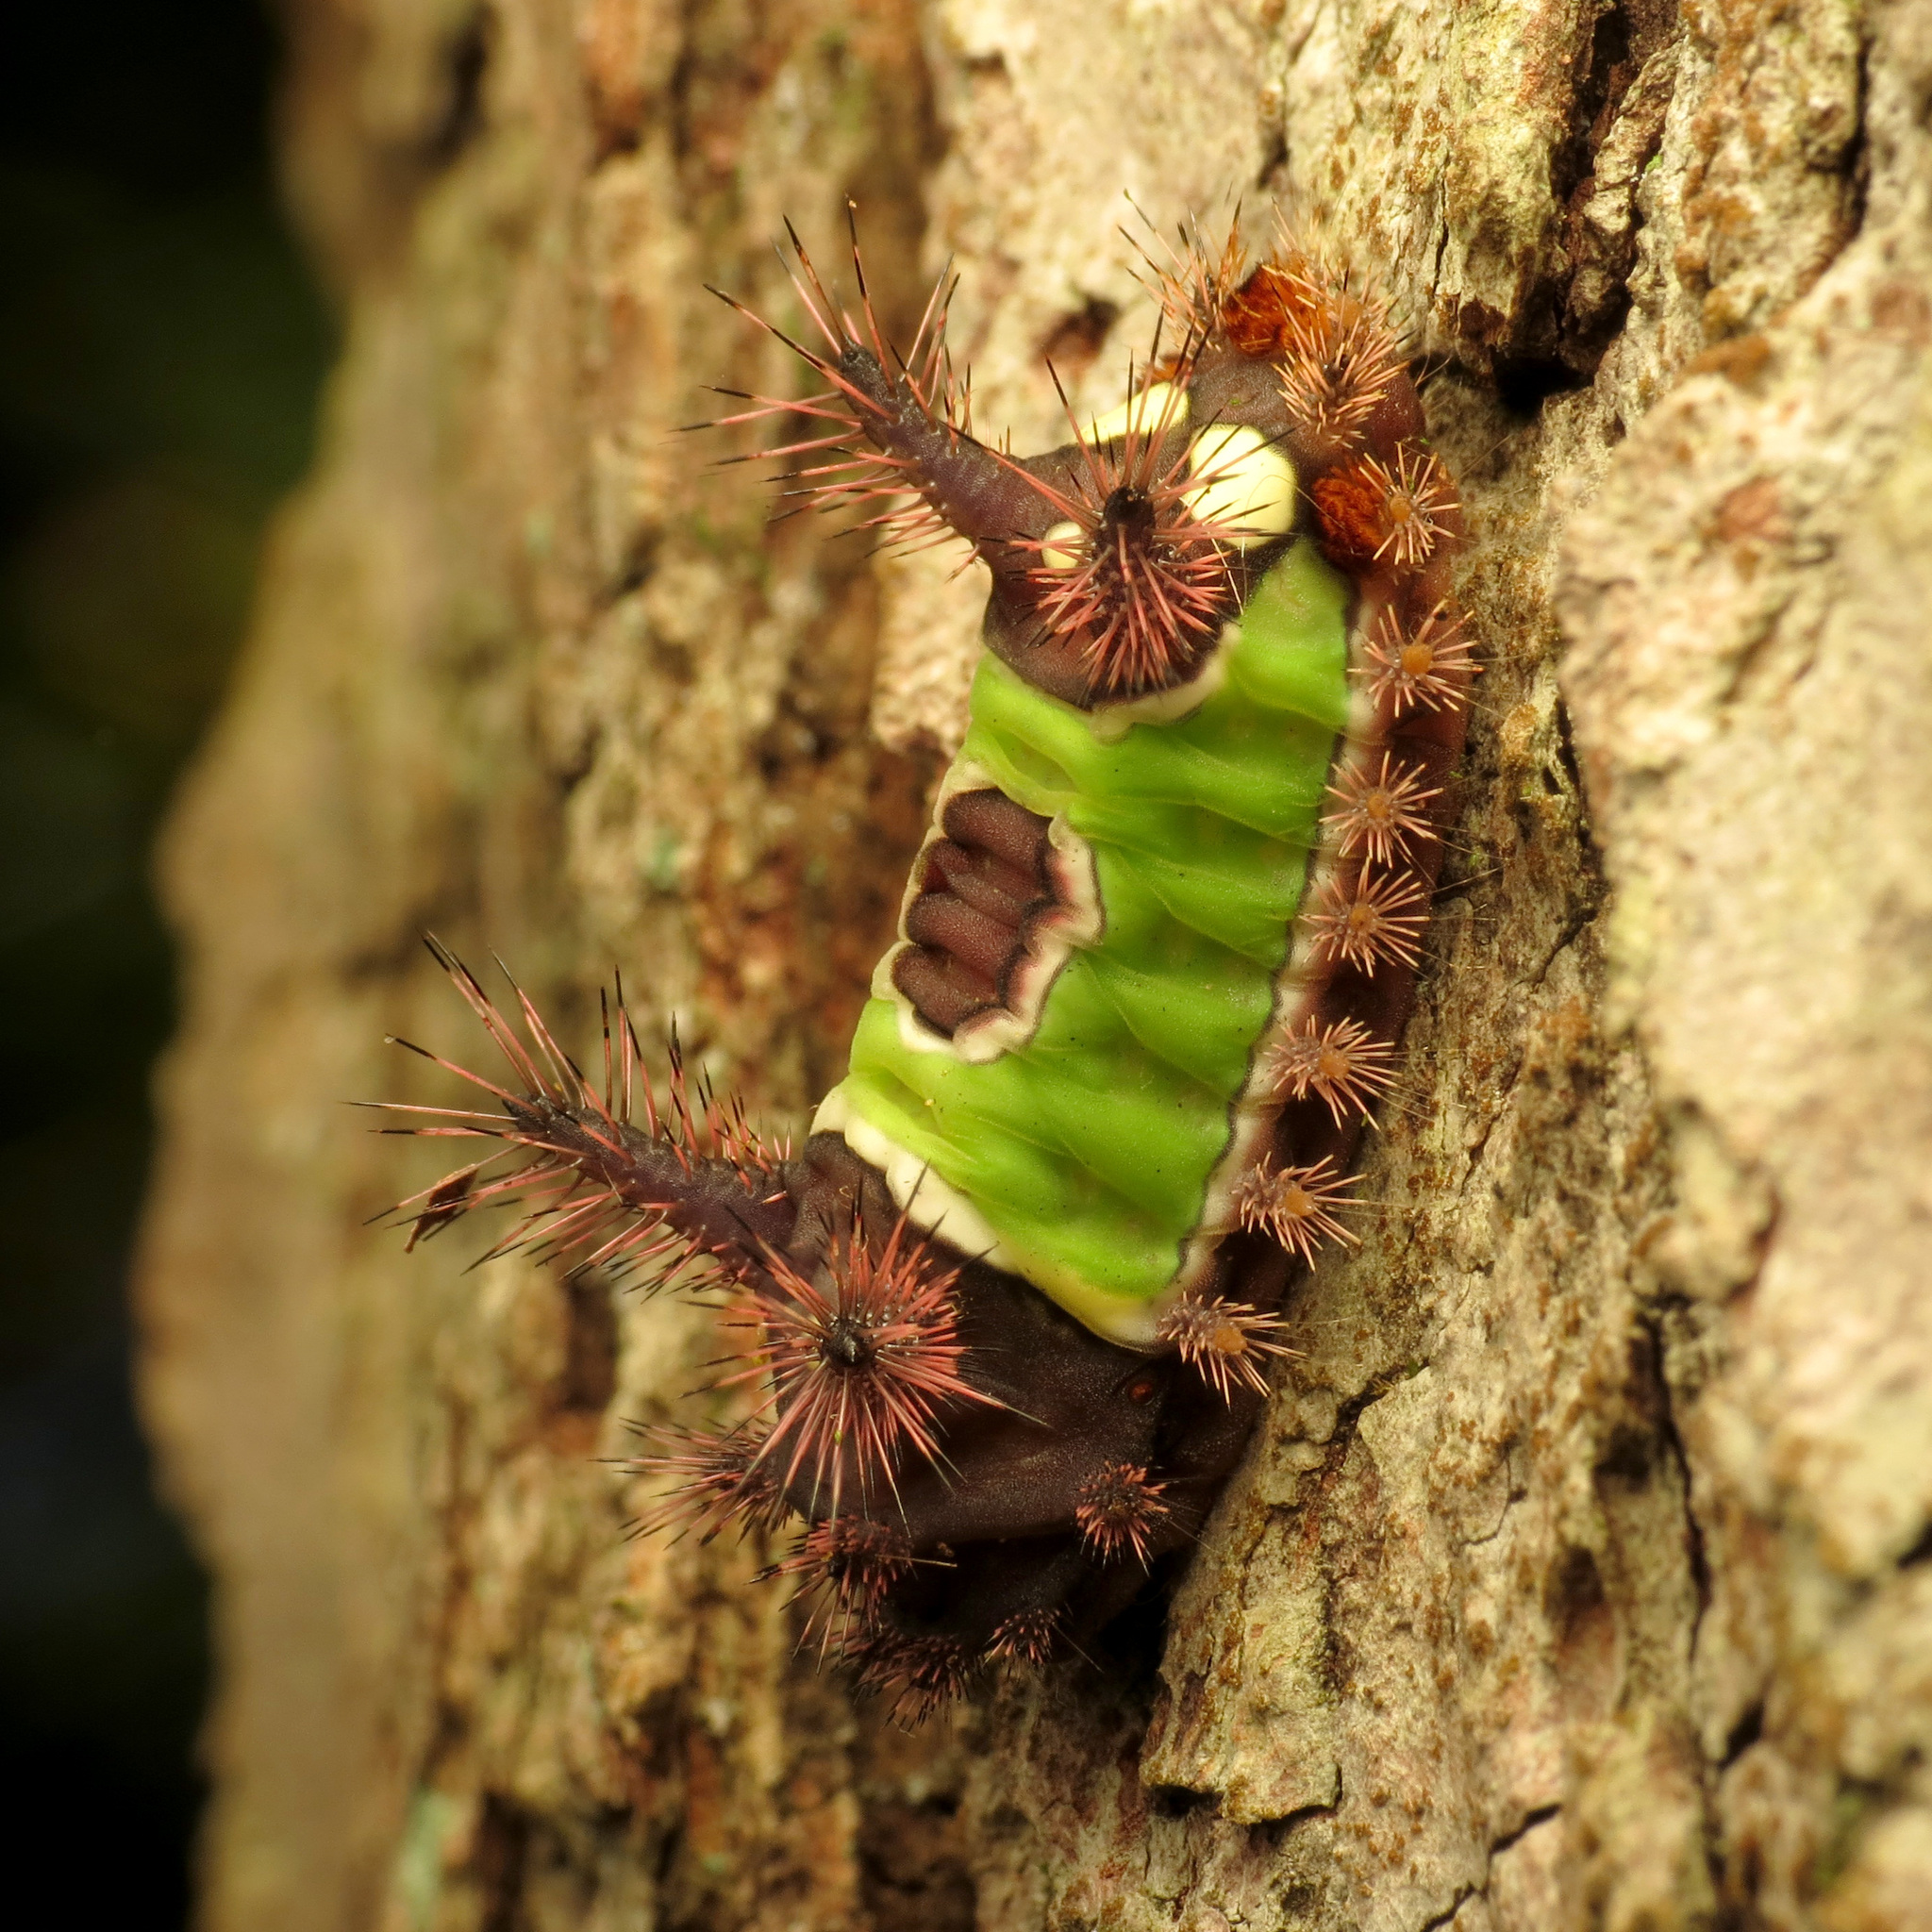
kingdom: Animalia
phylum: Arthropoda
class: Insecta
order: Lepidoptera
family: Limacodidae
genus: Acharia
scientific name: Acharia stimulea
